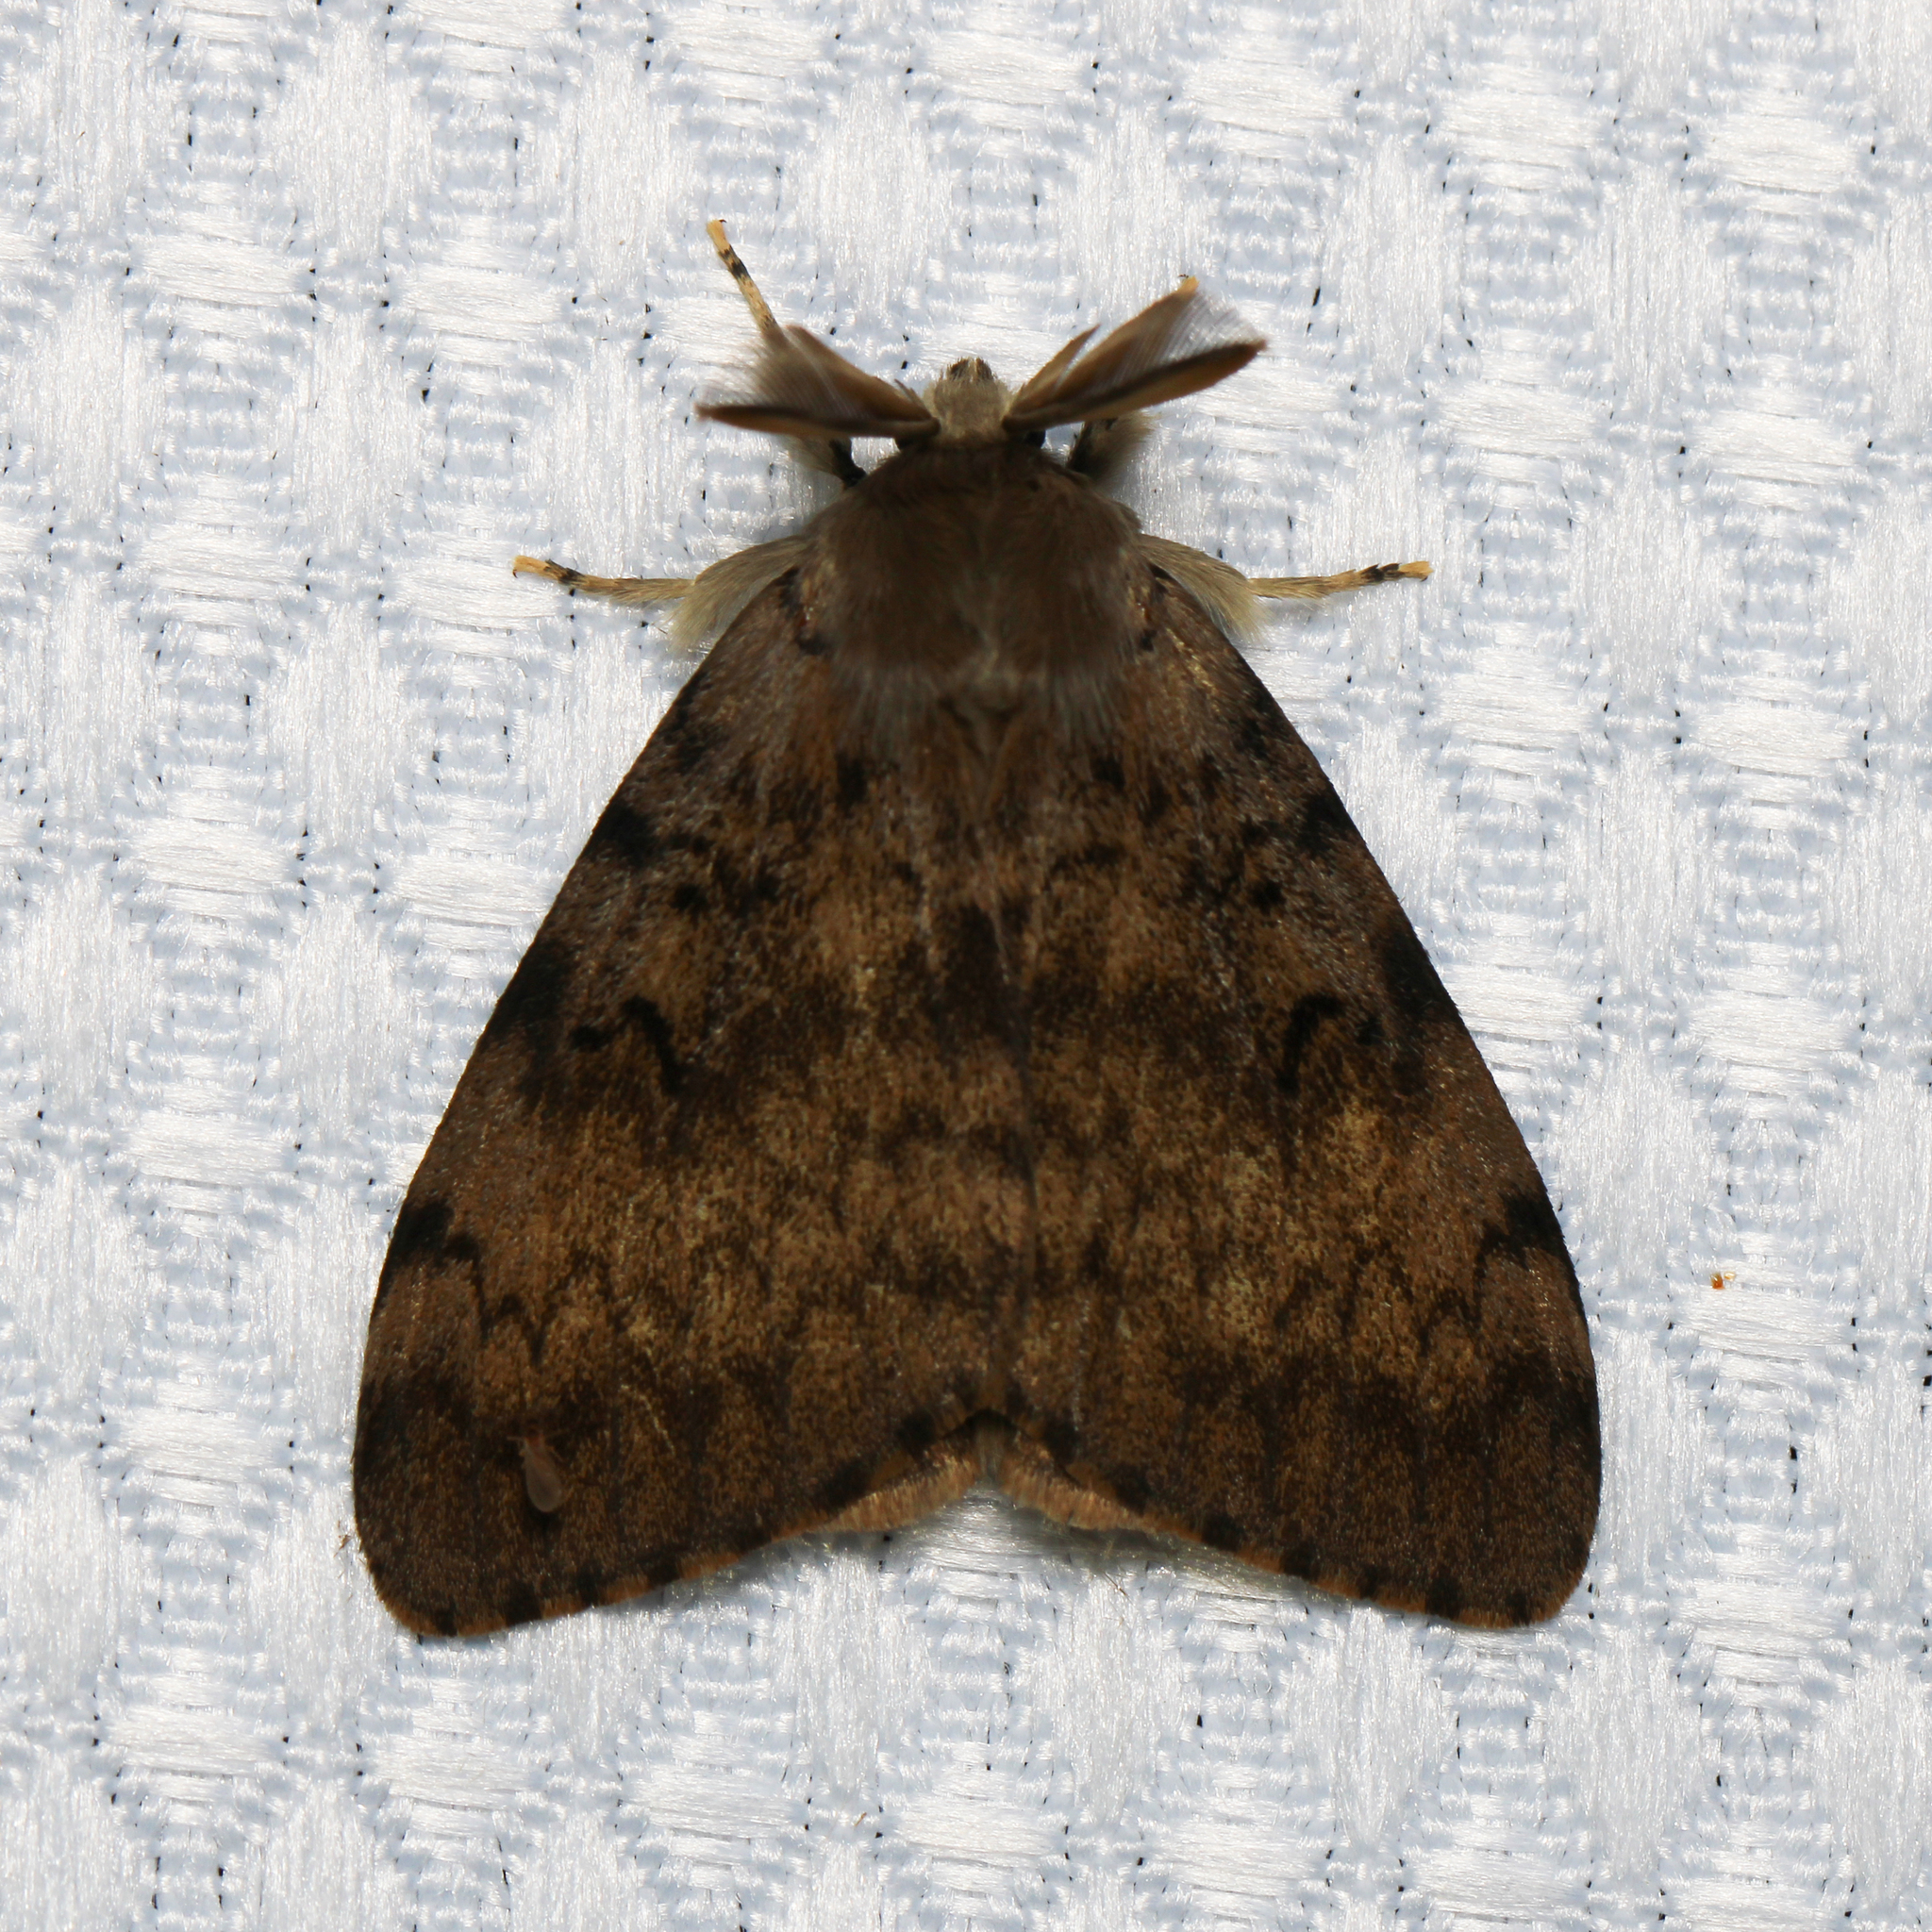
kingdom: Animalia
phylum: Arthropoda
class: Insecta
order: Lepidoptera
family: Erebidae
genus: Lymantria
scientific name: Lymantria dispar
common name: Gypsy moth
